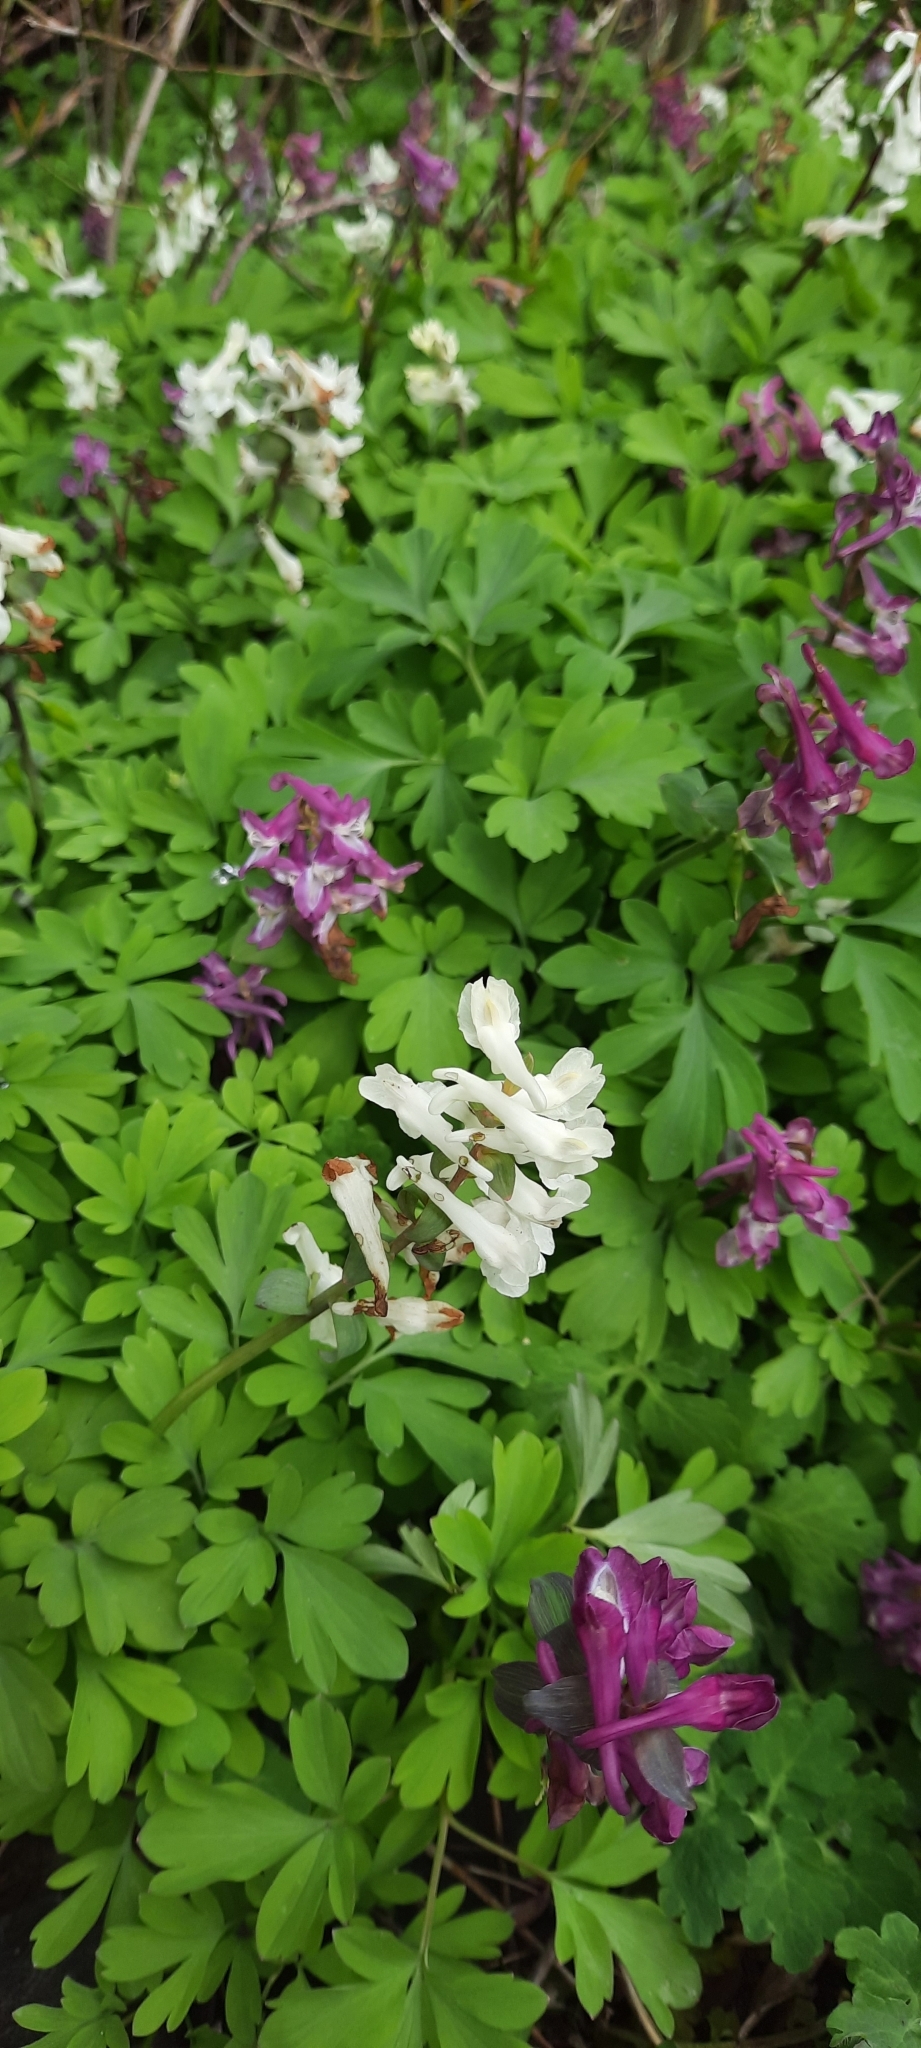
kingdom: Plantae
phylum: Tracheophyta
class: Magnoliopsida
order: Ranunculales
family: Papaveraceae
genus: Corydalis
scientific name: Corydalis cava
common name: Hollowroot
